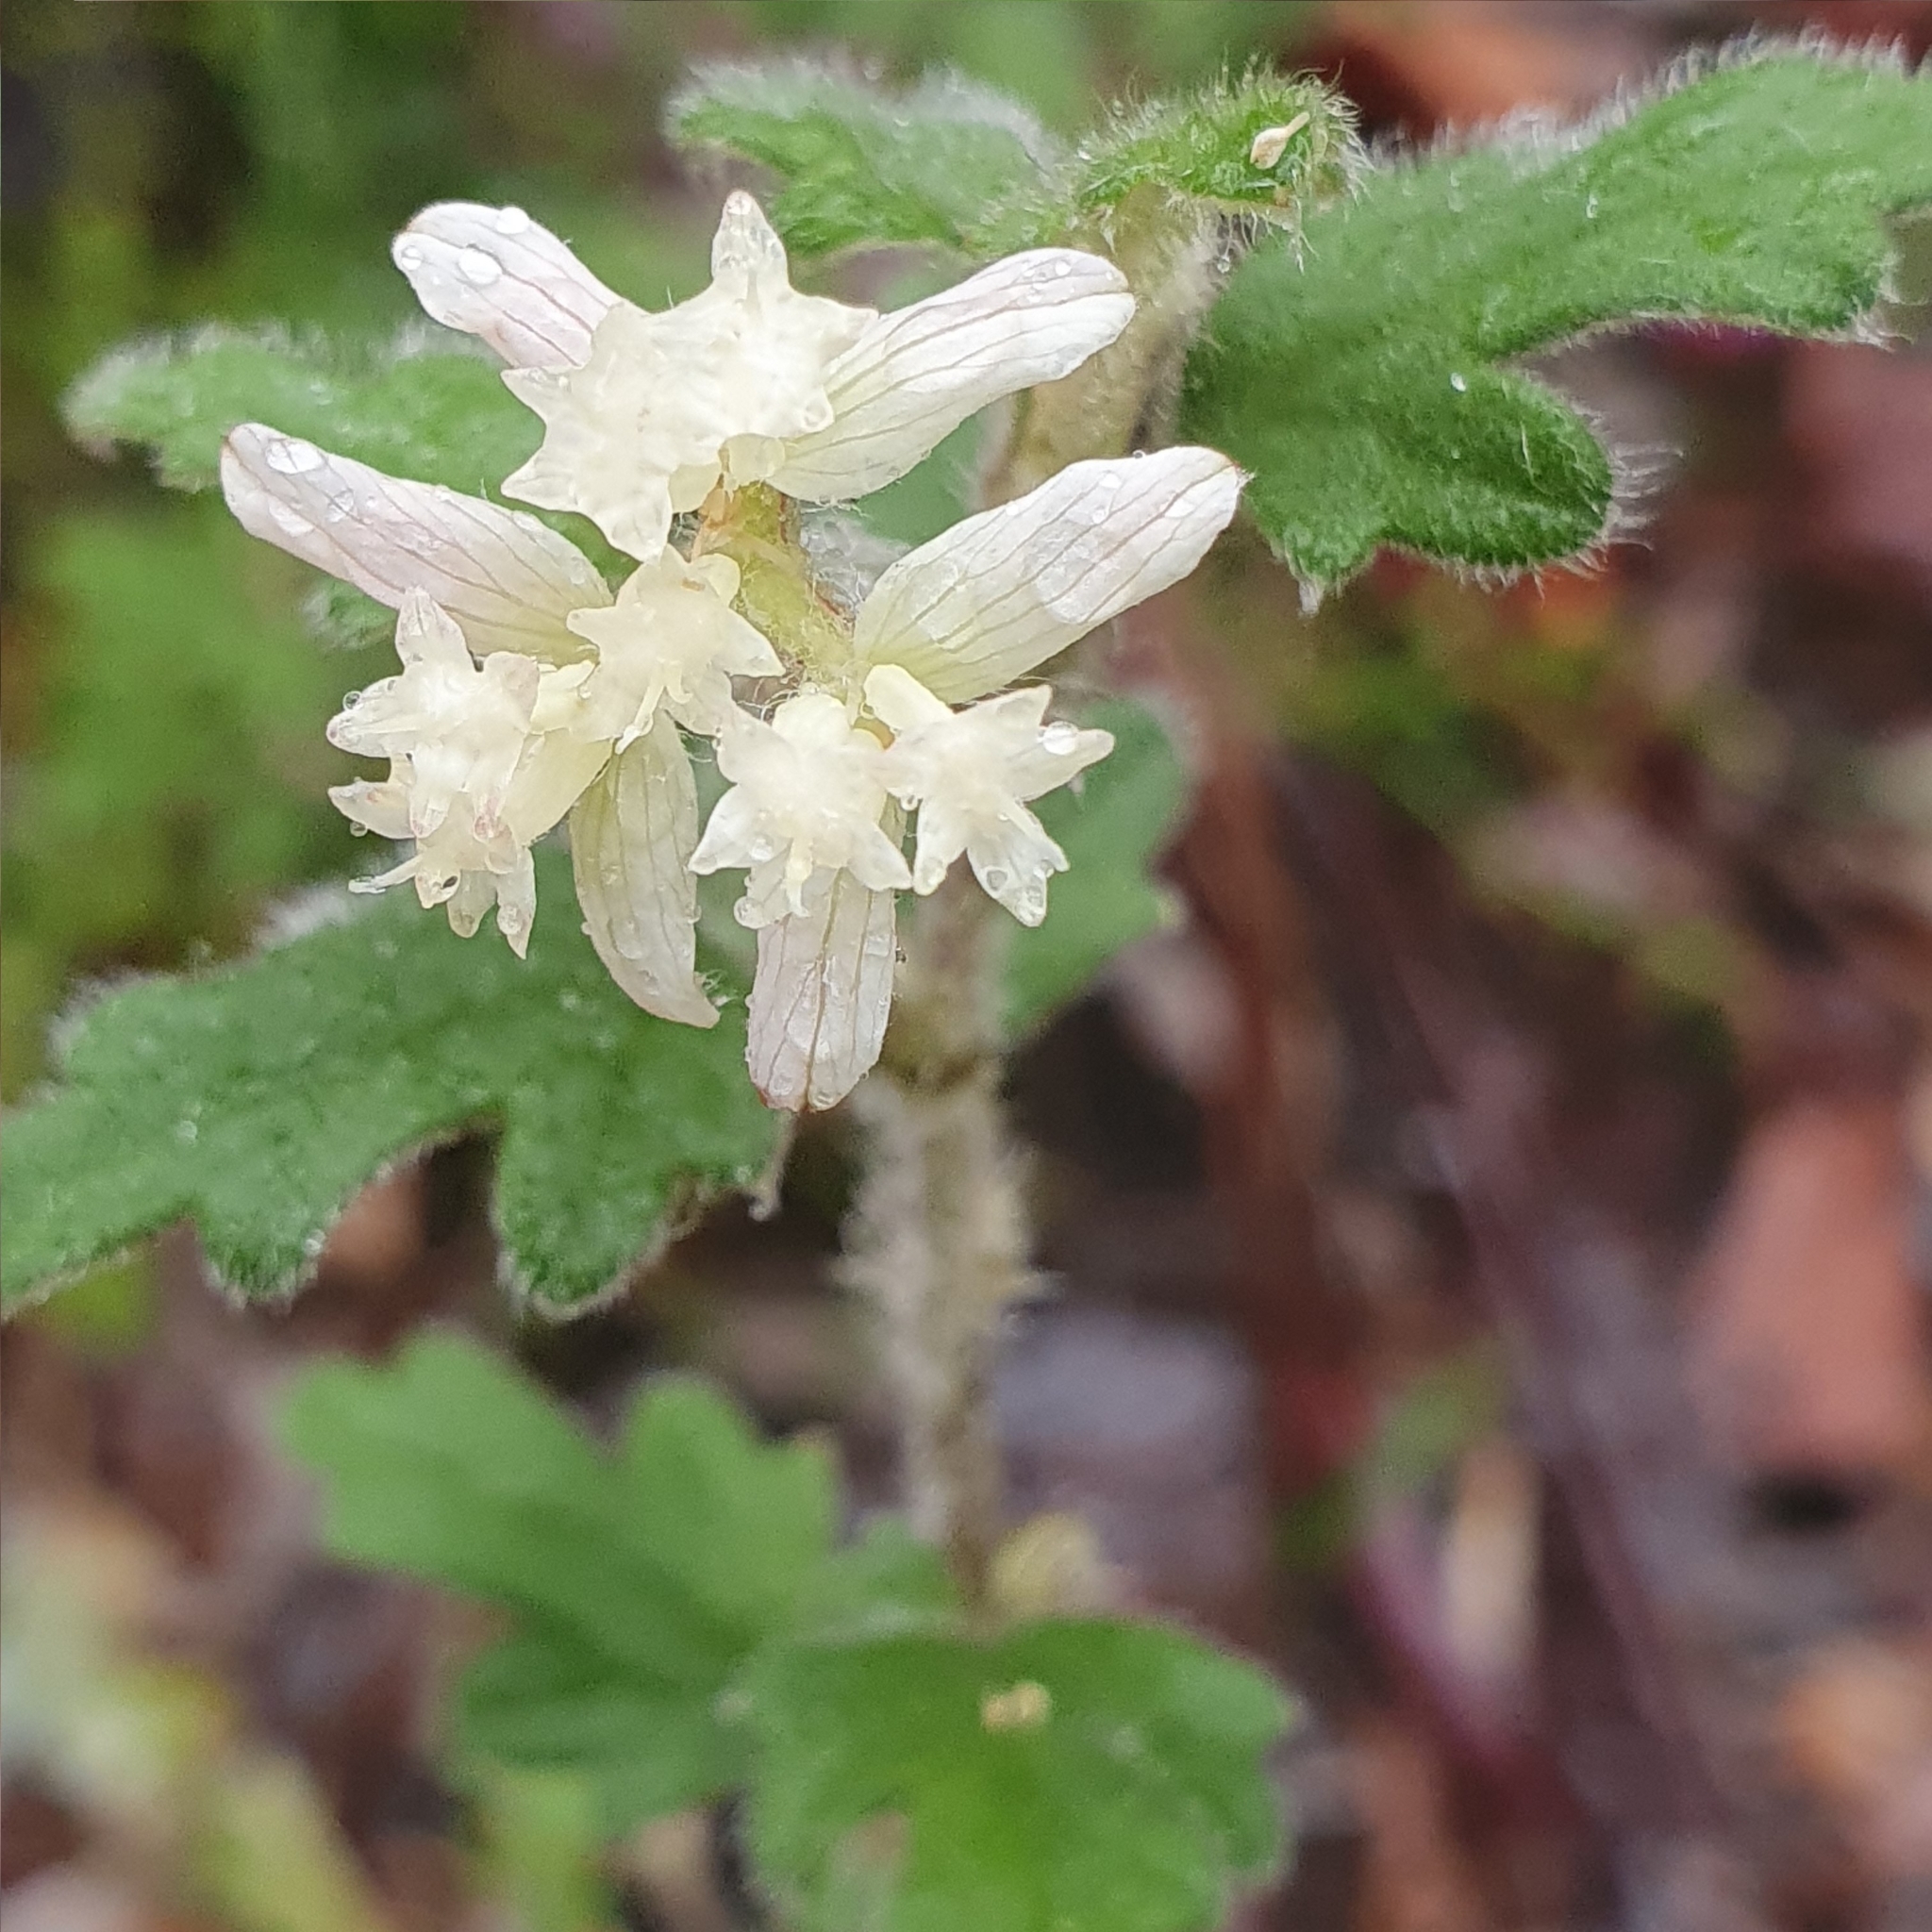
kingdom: Plantae
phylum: Tracheophyta
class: Magnoliopsida
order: Apiales
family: Apiaceae
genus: Xanthosia
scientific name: Xanthosia pilosa
